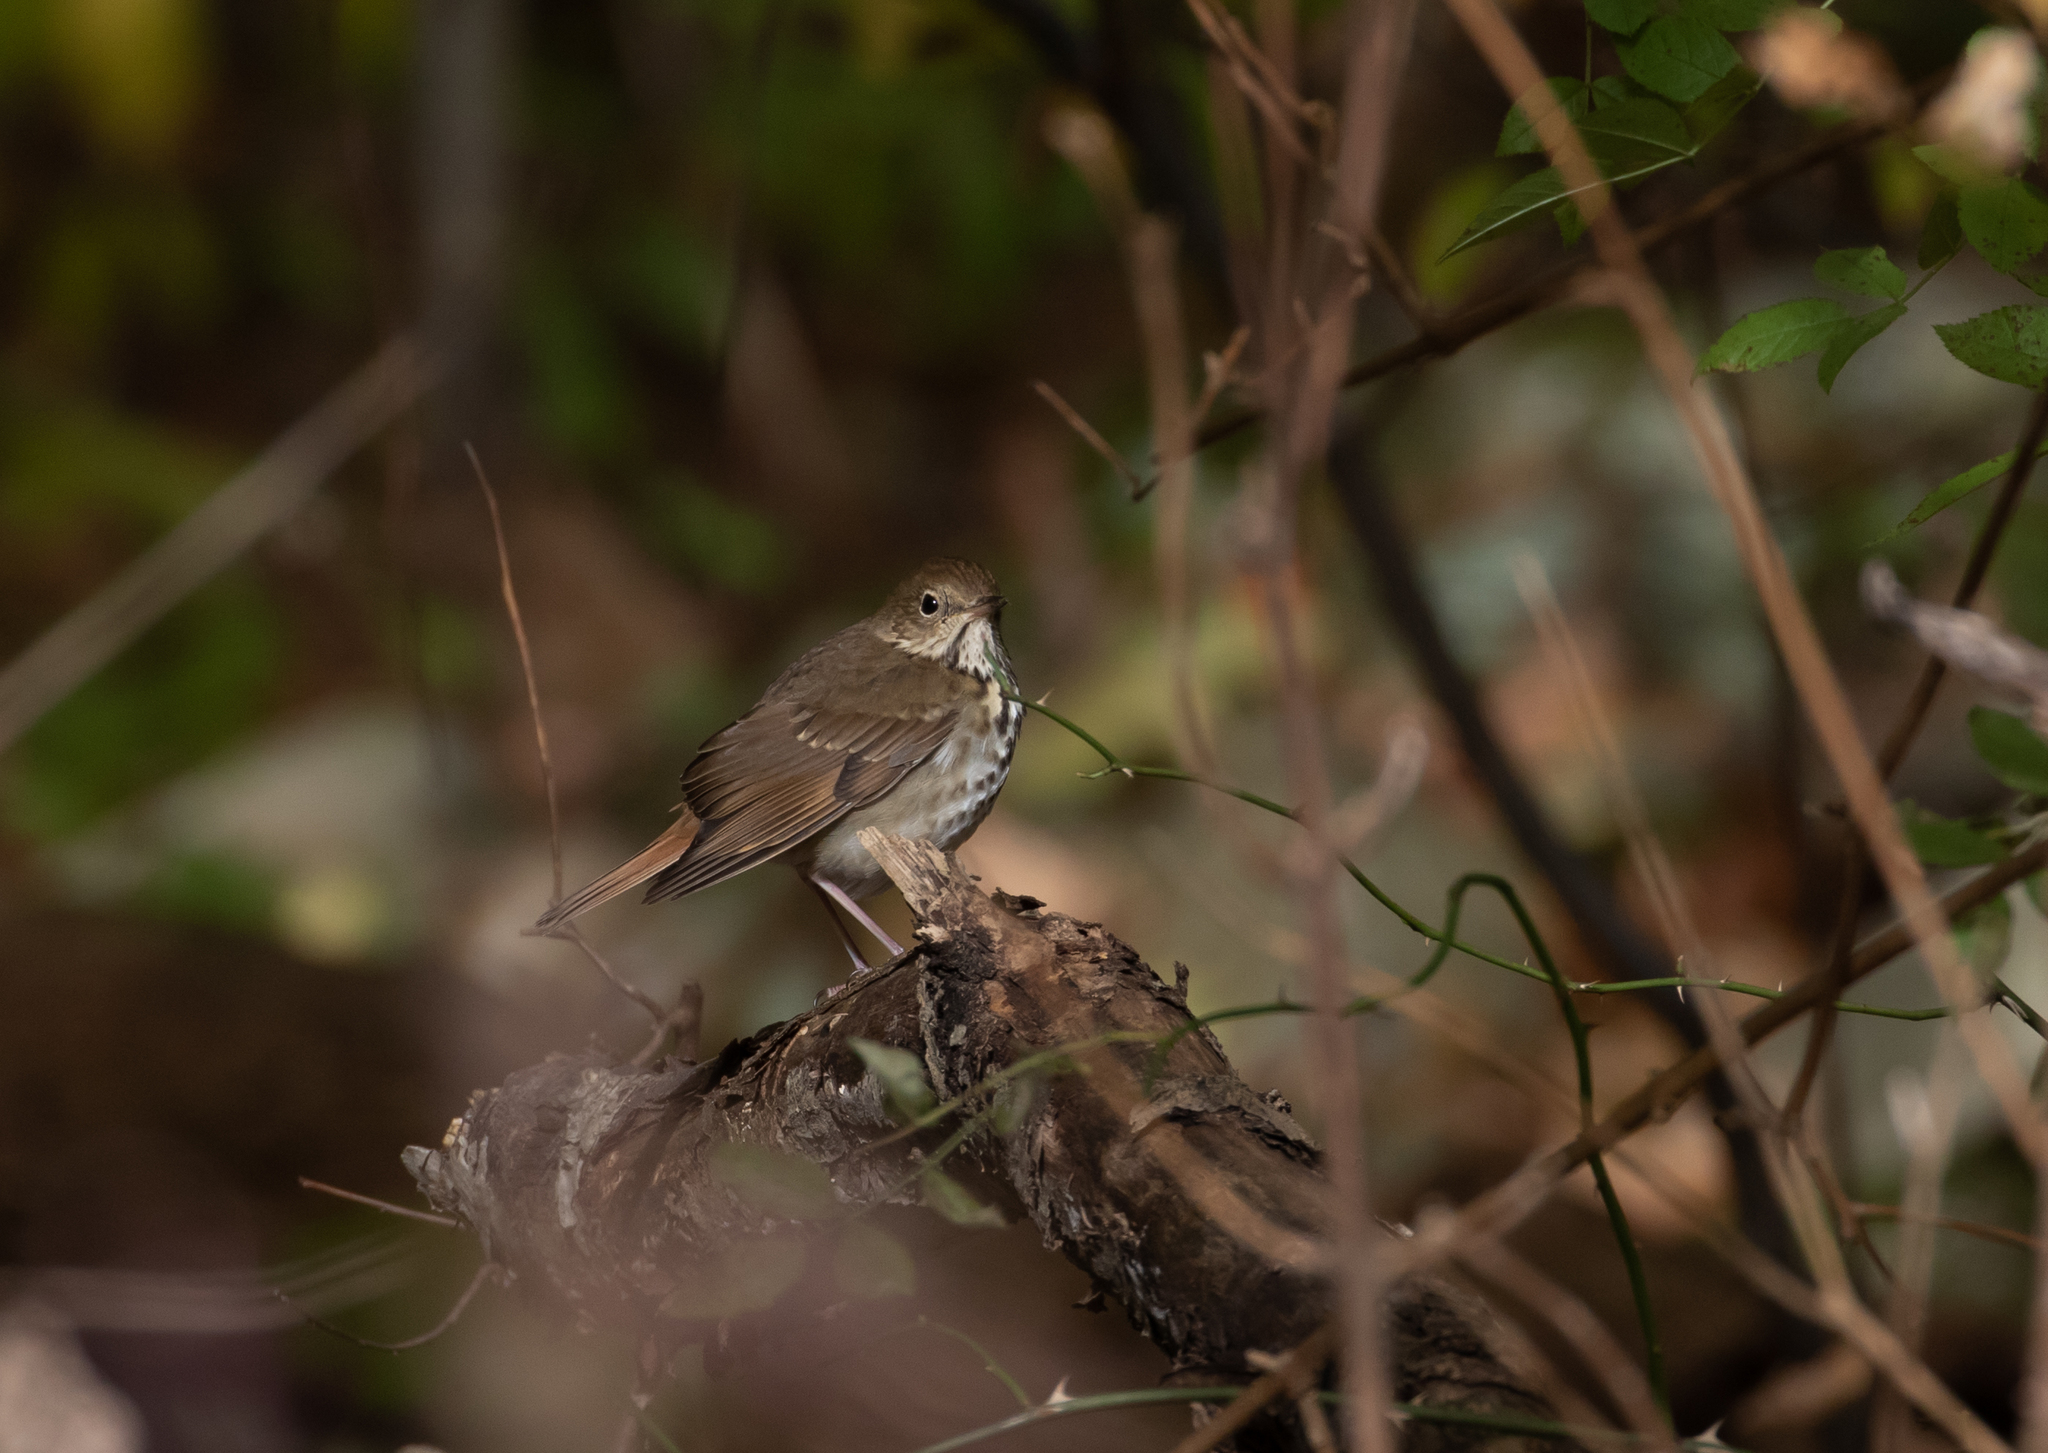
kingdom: Animalia
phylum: Chordata
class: Aves
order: Passeriformes
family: Turdidae
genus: Catharus
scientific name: Catharus guttatus
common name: Hermit thrush
